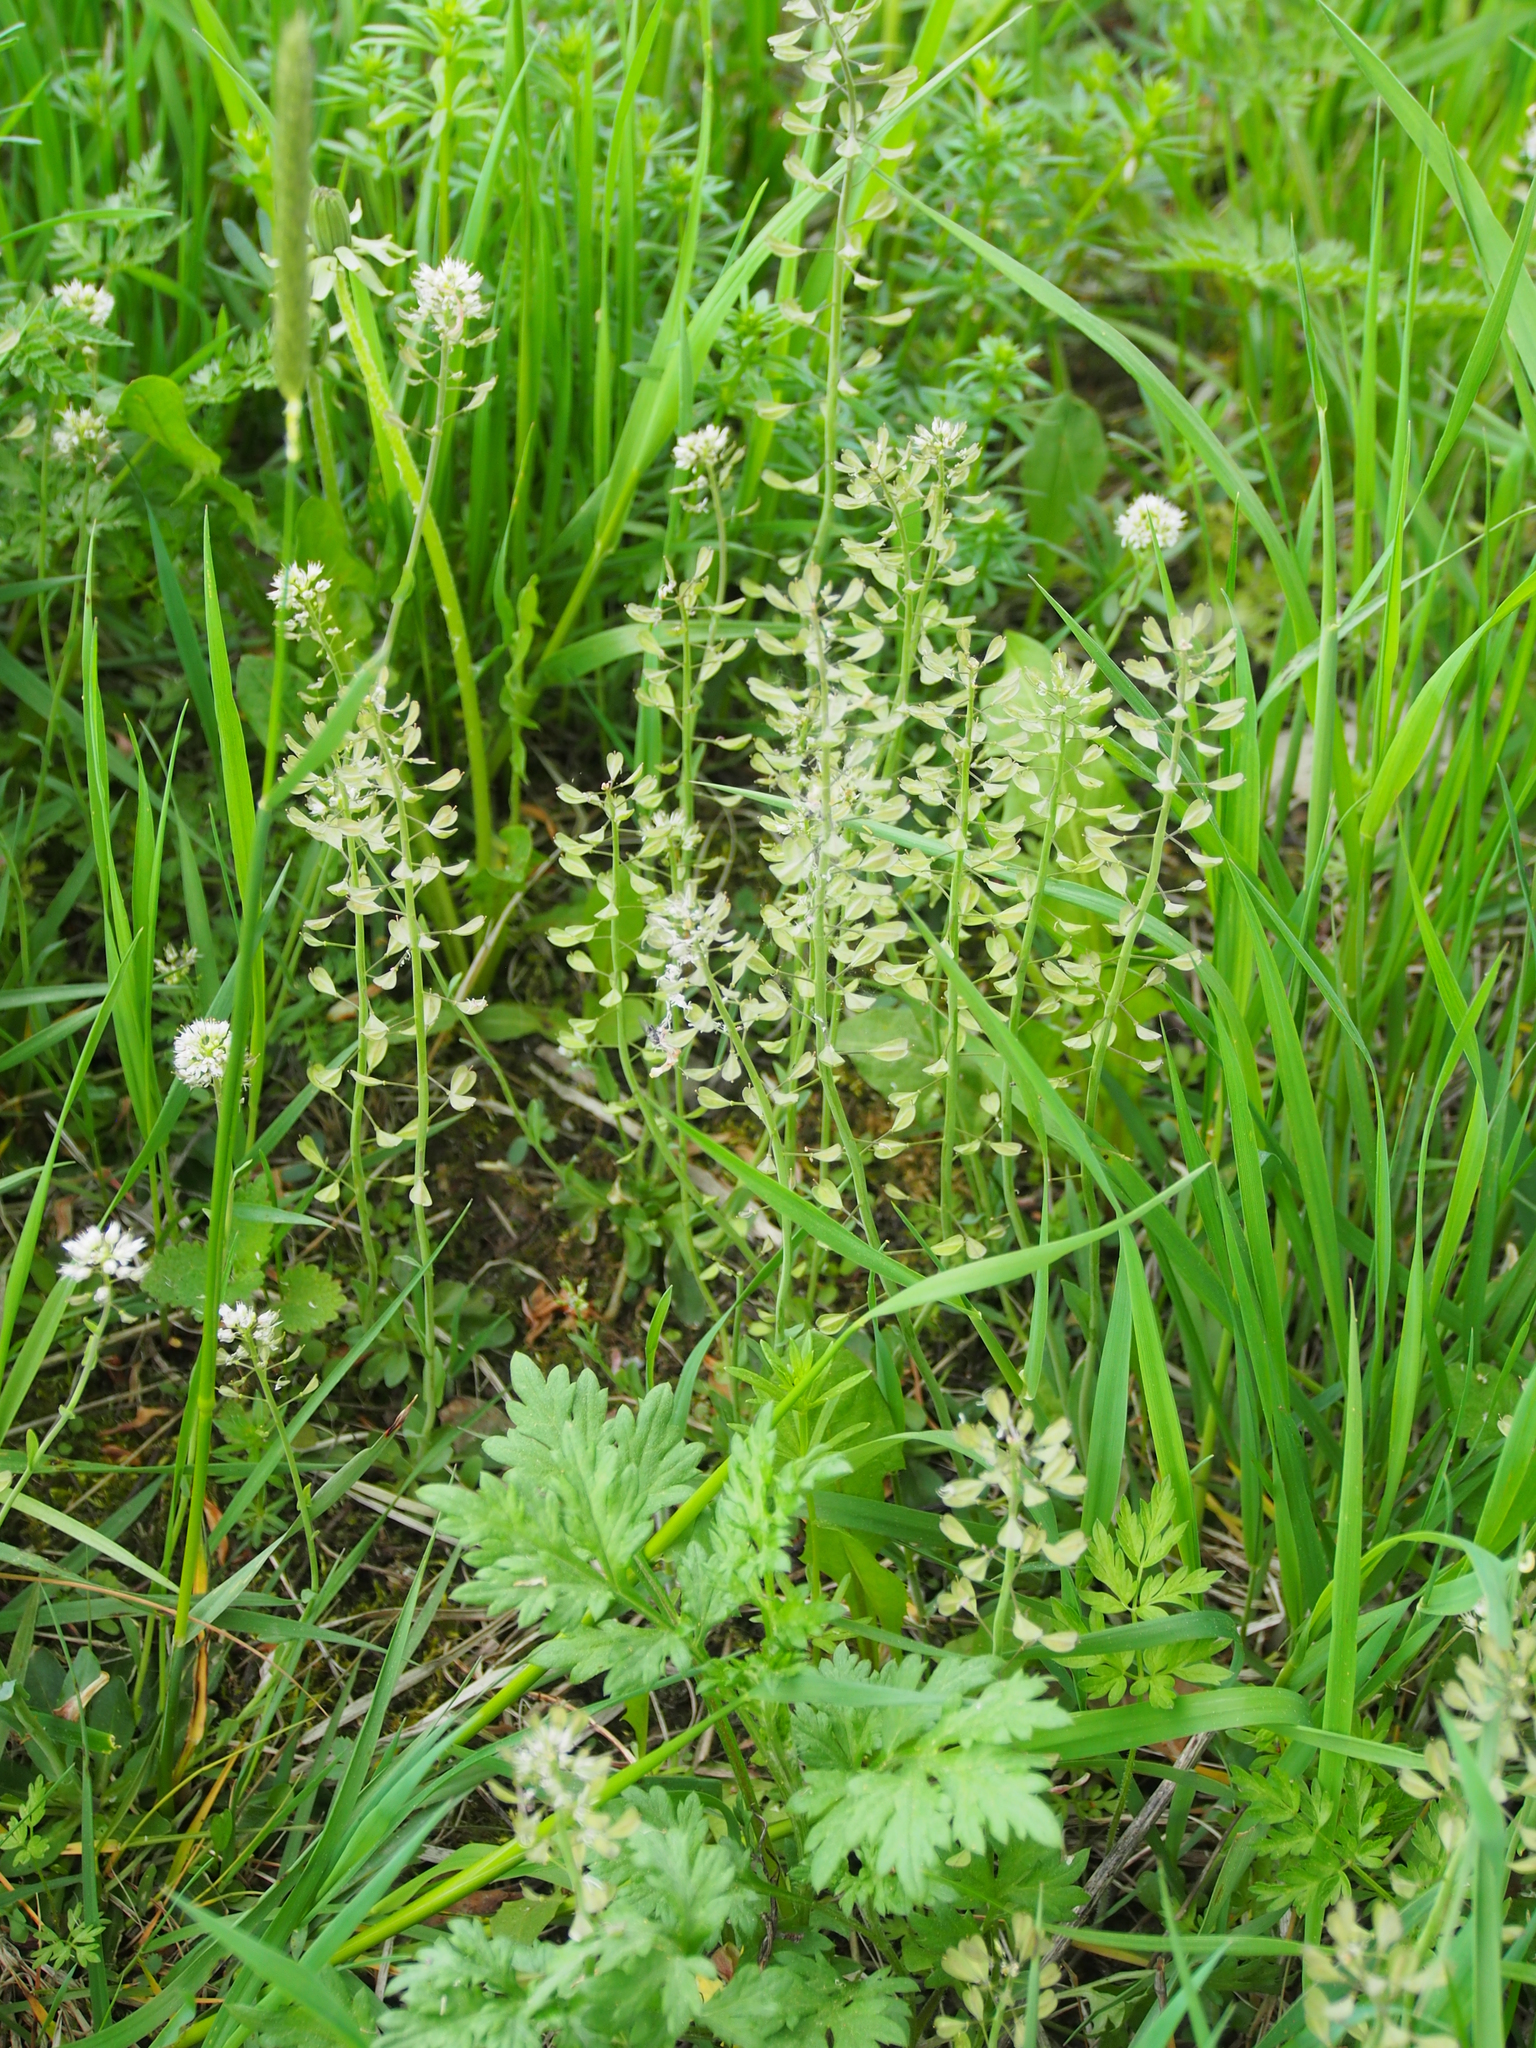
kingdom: Plantae
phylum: Tracheophyta
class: Magnoliopsida
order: Brassicales
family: Brassicaceae
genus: Noccaea
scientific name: Noccaea perfoliata
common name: Perfoliate pennycress
